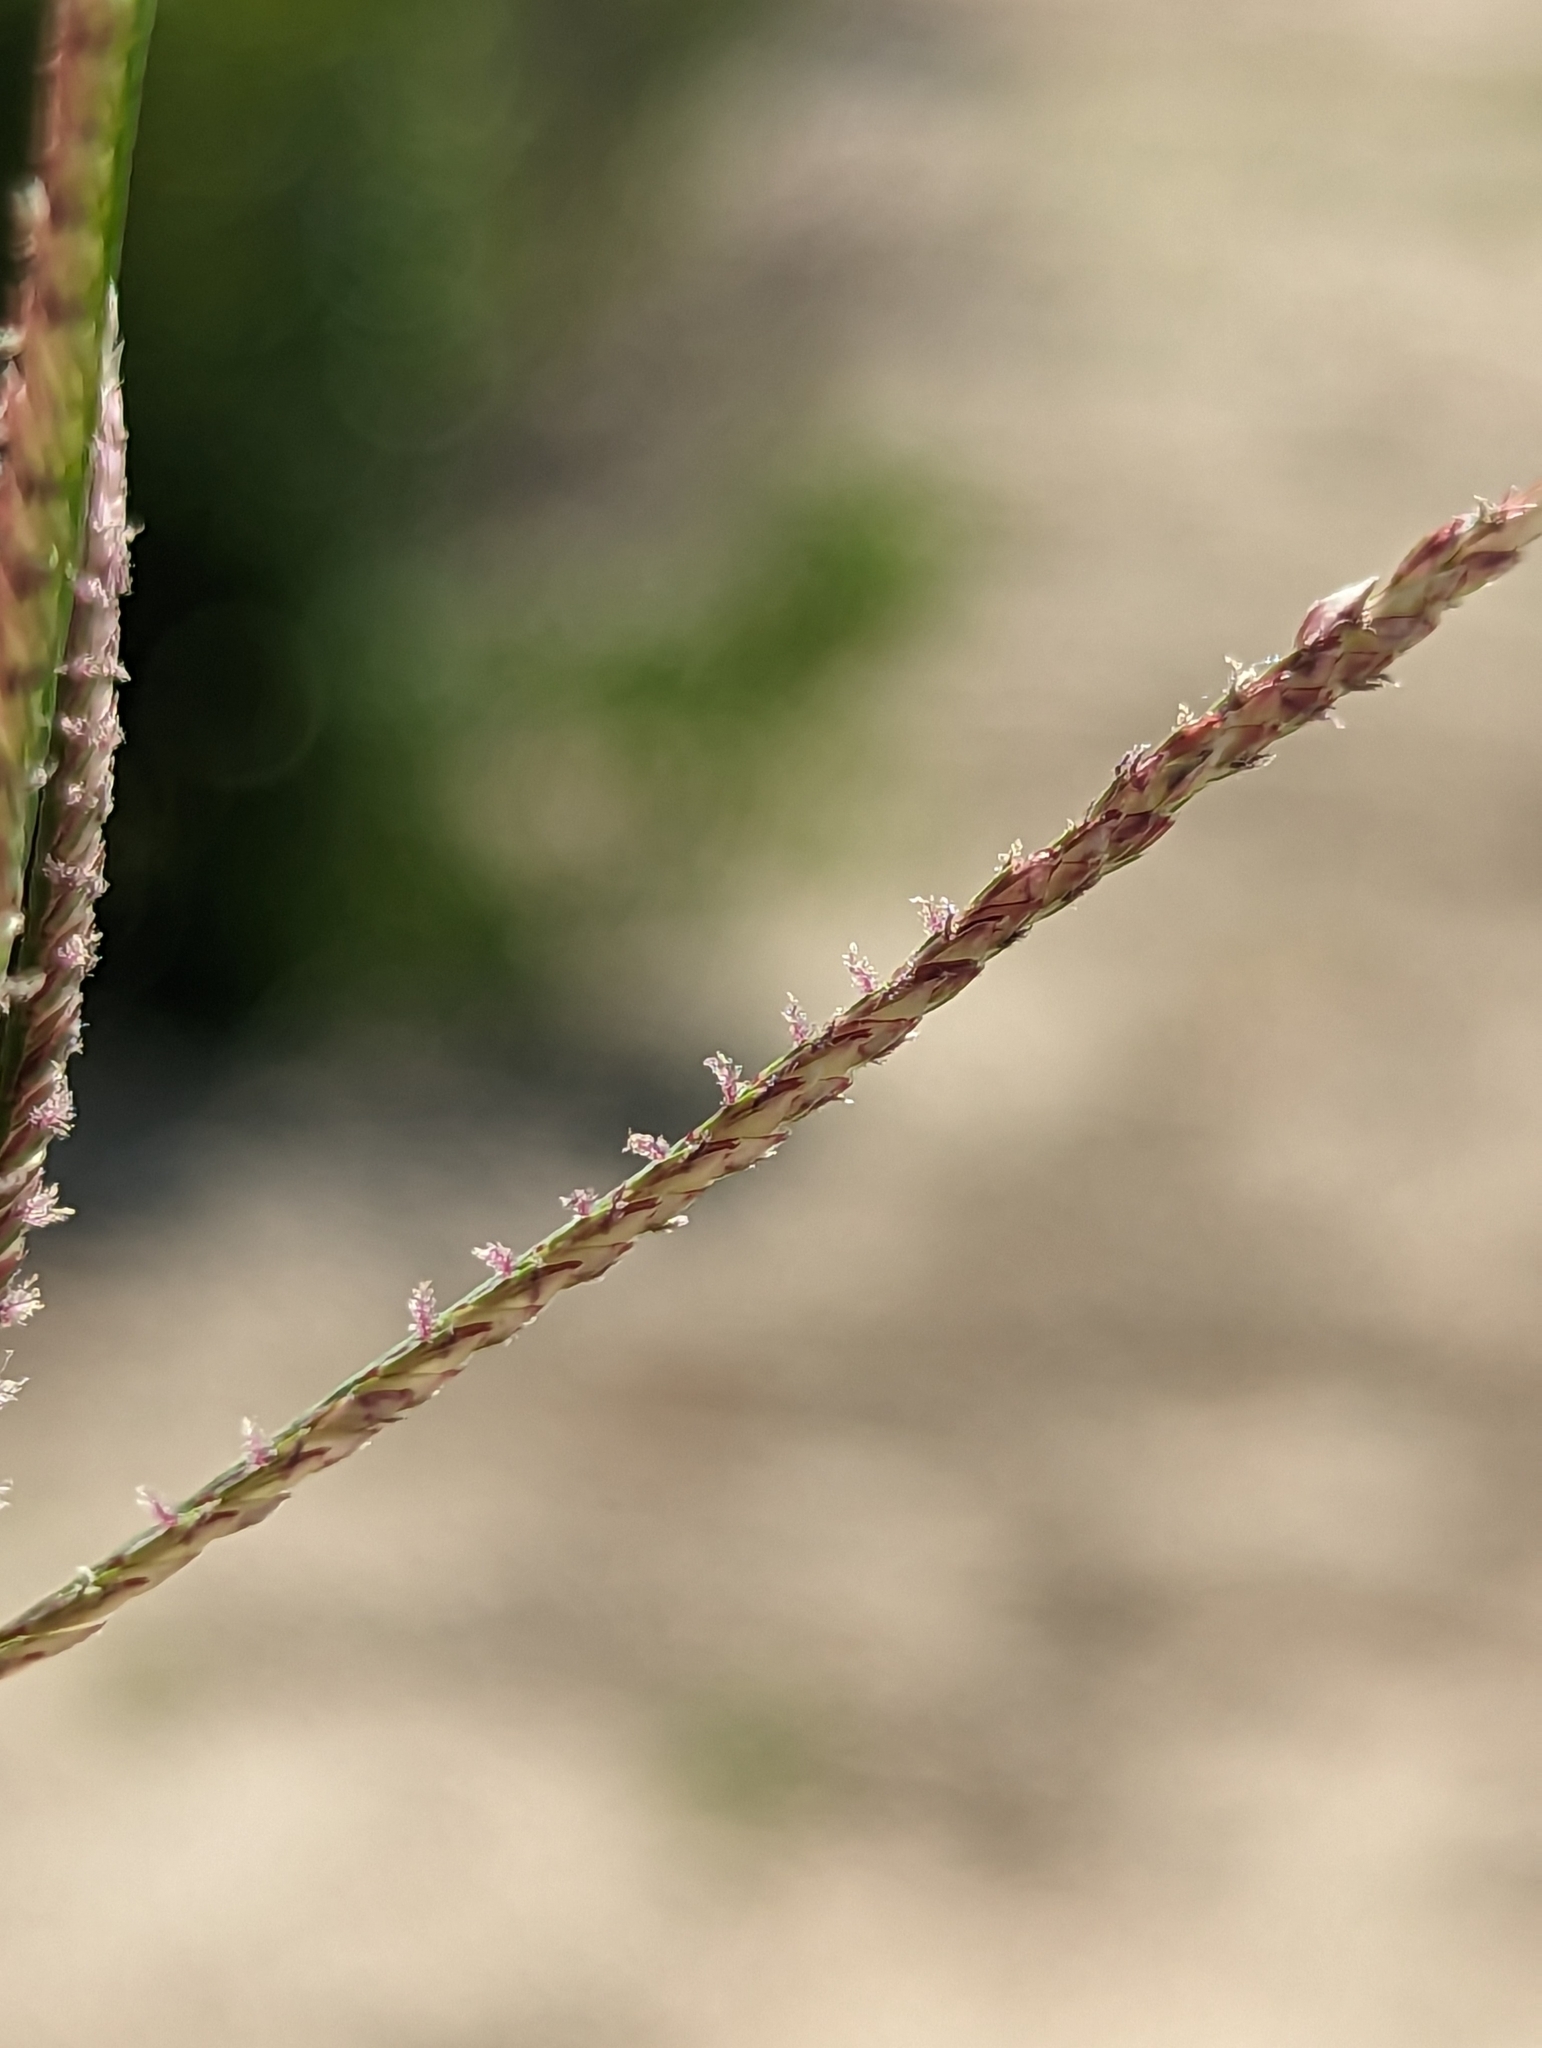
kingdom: Plantae
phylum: Tracheophyta
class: Liliopsida
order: Poales
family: Poaceae
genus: Cynodon
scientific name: Cynodon dactylon
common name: Bermuda grass
